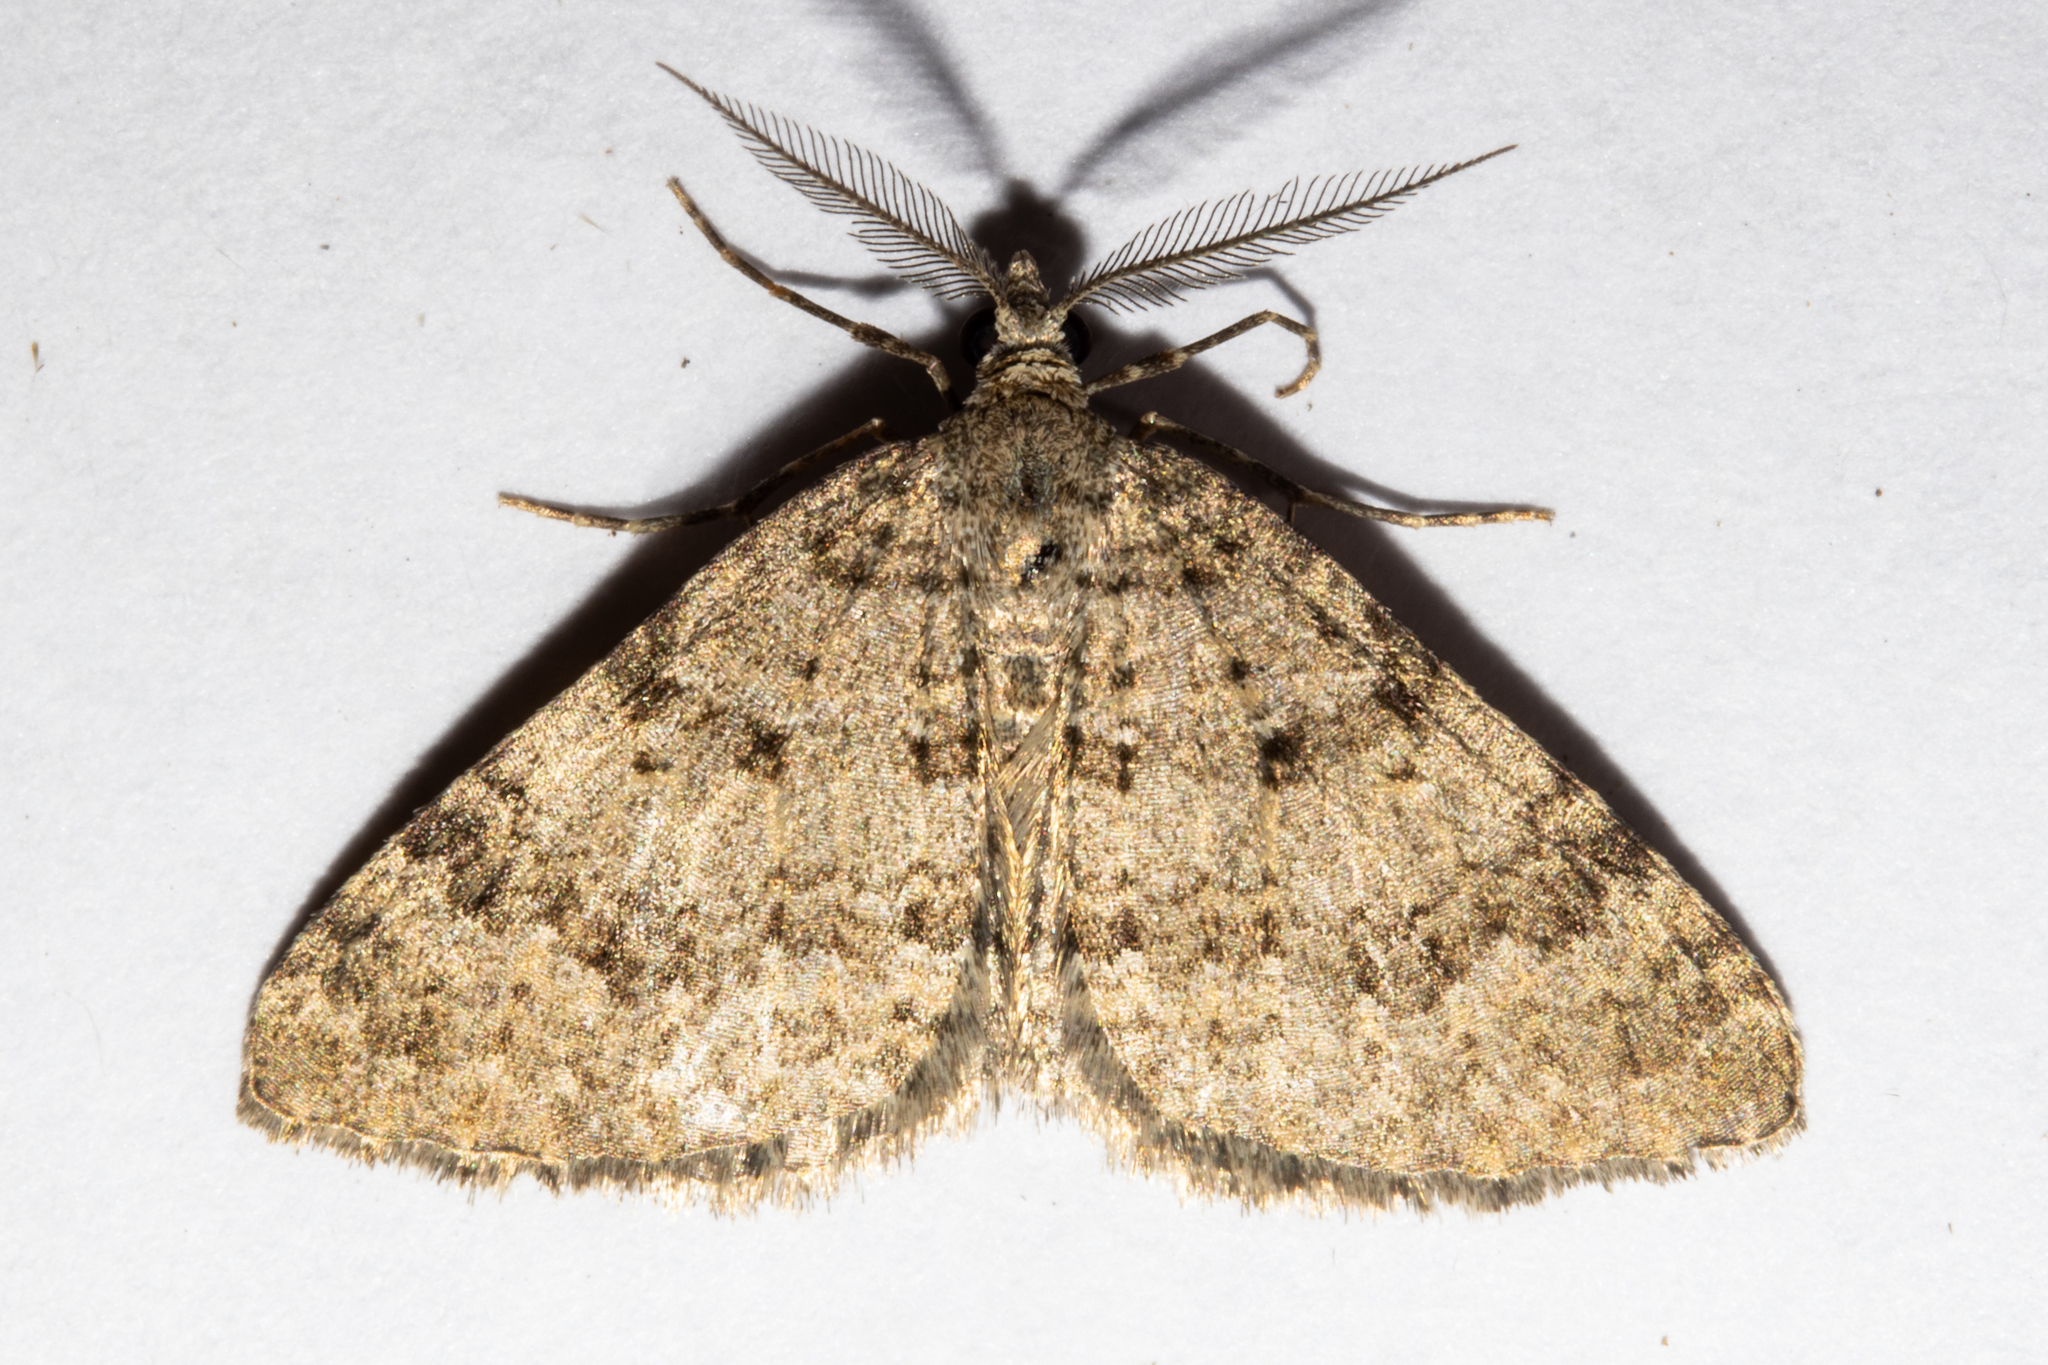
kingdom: Animalia
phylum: Arthropoda
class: Insecta
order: Lepidoptera
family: Geometridae
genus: Helastia
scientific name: Helastia corcularia
